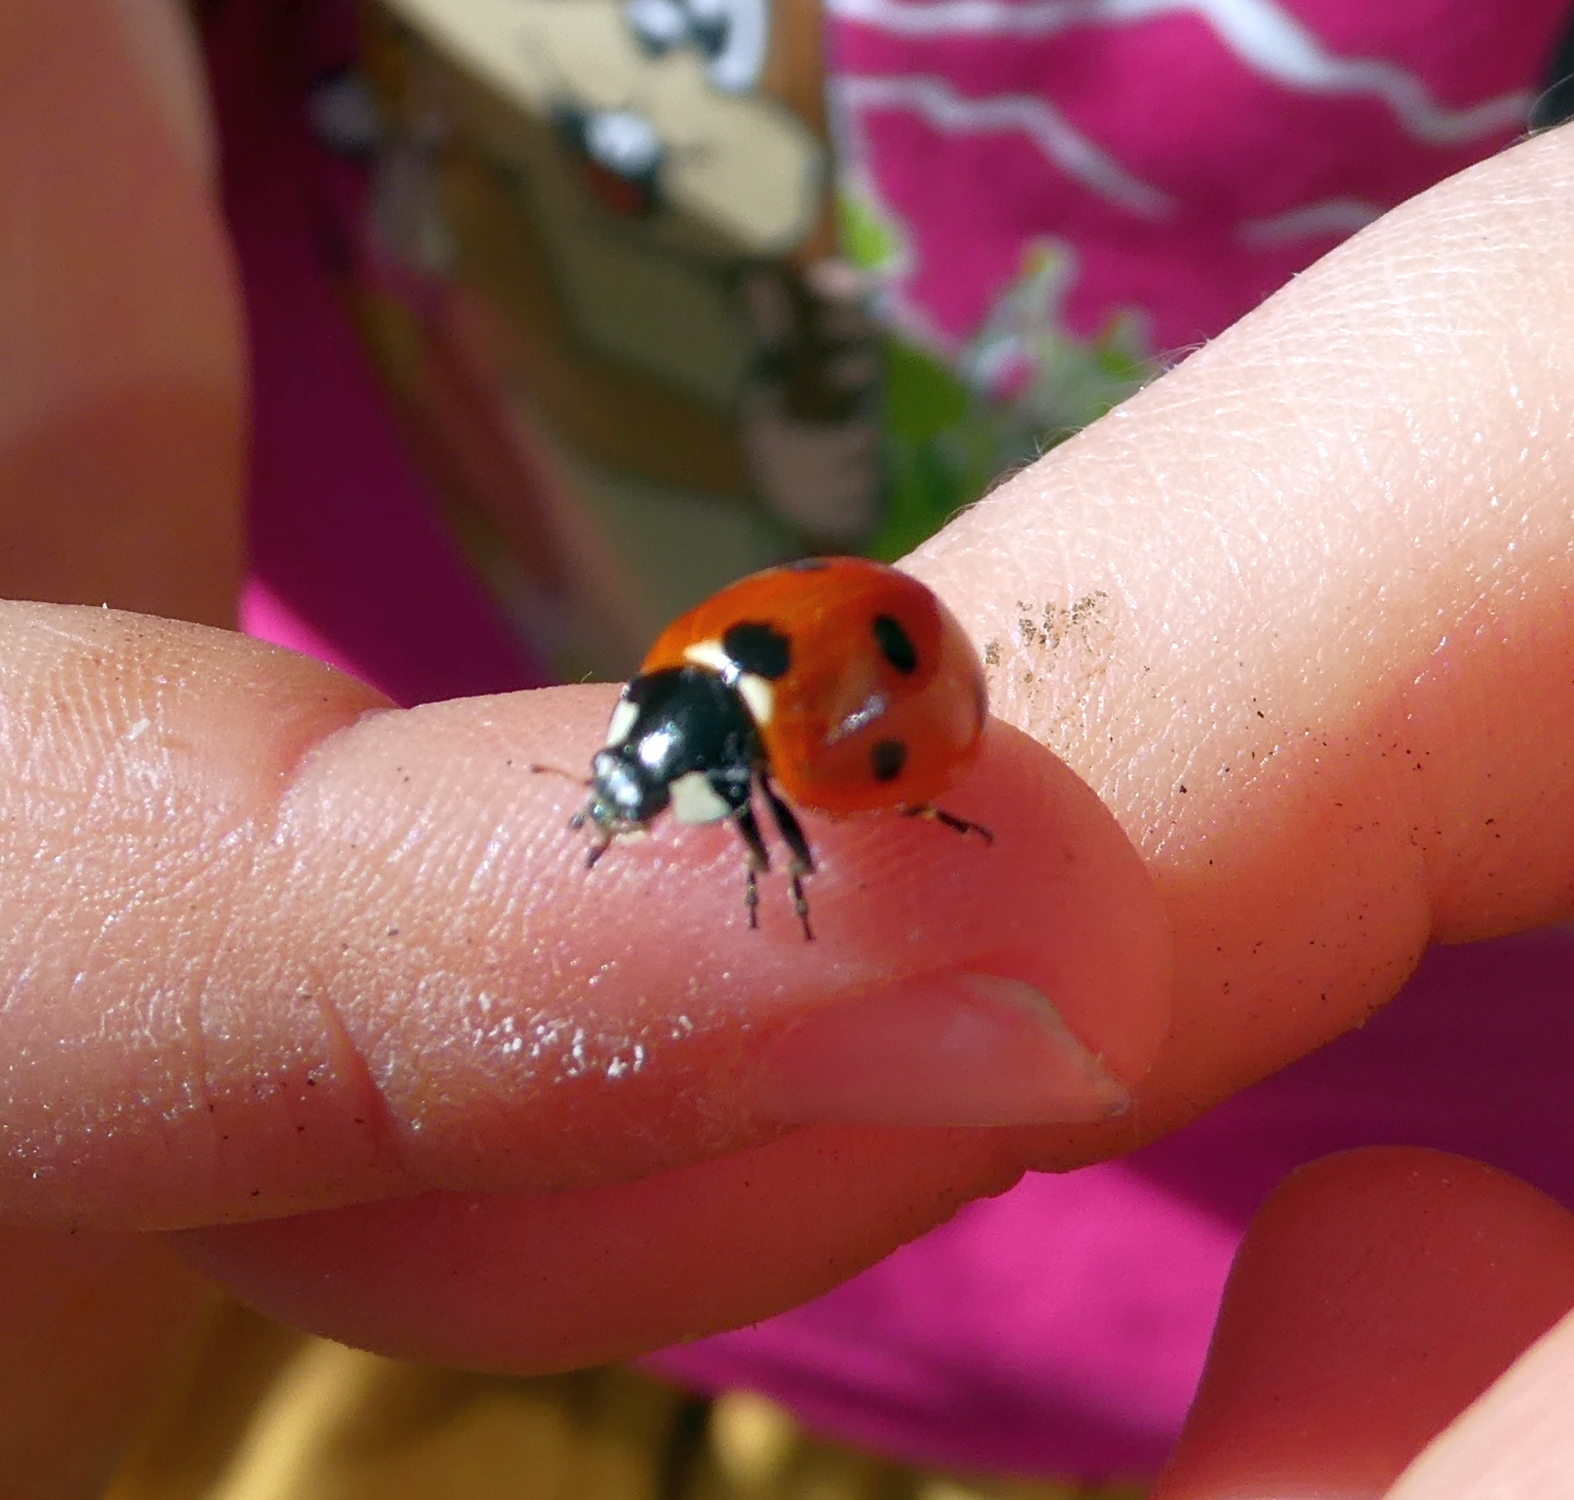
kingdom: Animalia
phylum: Arthropoda
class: Insecta
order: Coleoptera
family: Coccinellidae
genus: Coccinella
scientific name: Coccinella septempunctata
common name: Sevenspotted lady beetle
